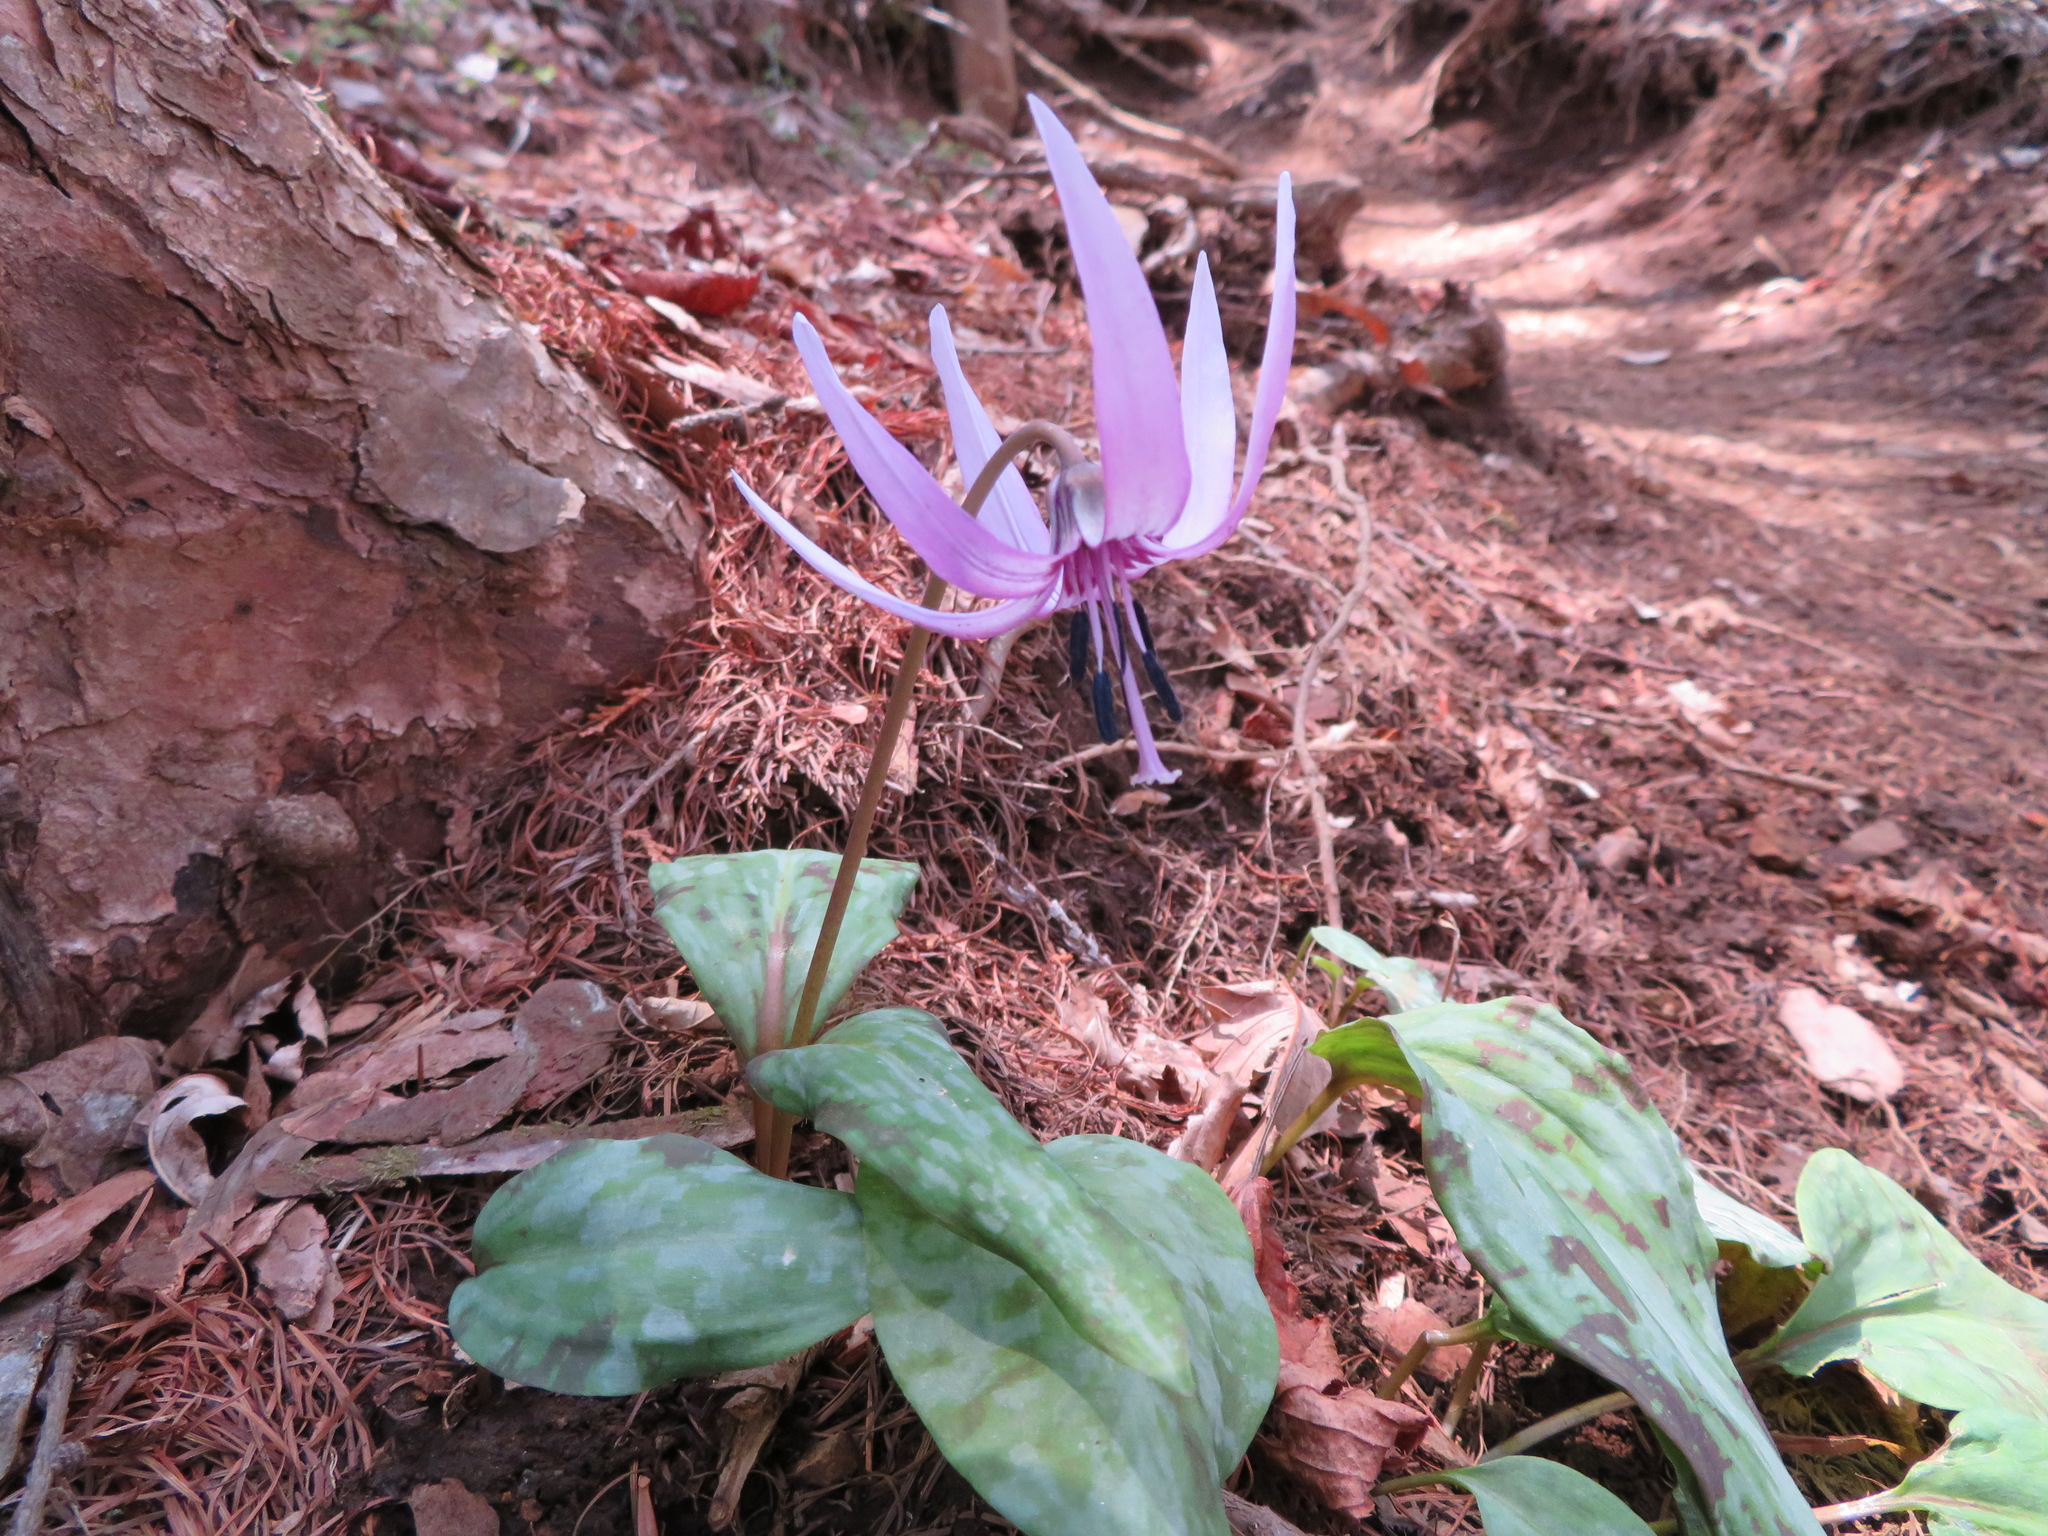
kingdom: Plantae
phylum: Tracheophyta
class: Liliopsida
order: Liliales
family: Liliaceae
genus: Erythronium
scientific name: Erythronium japonicum
